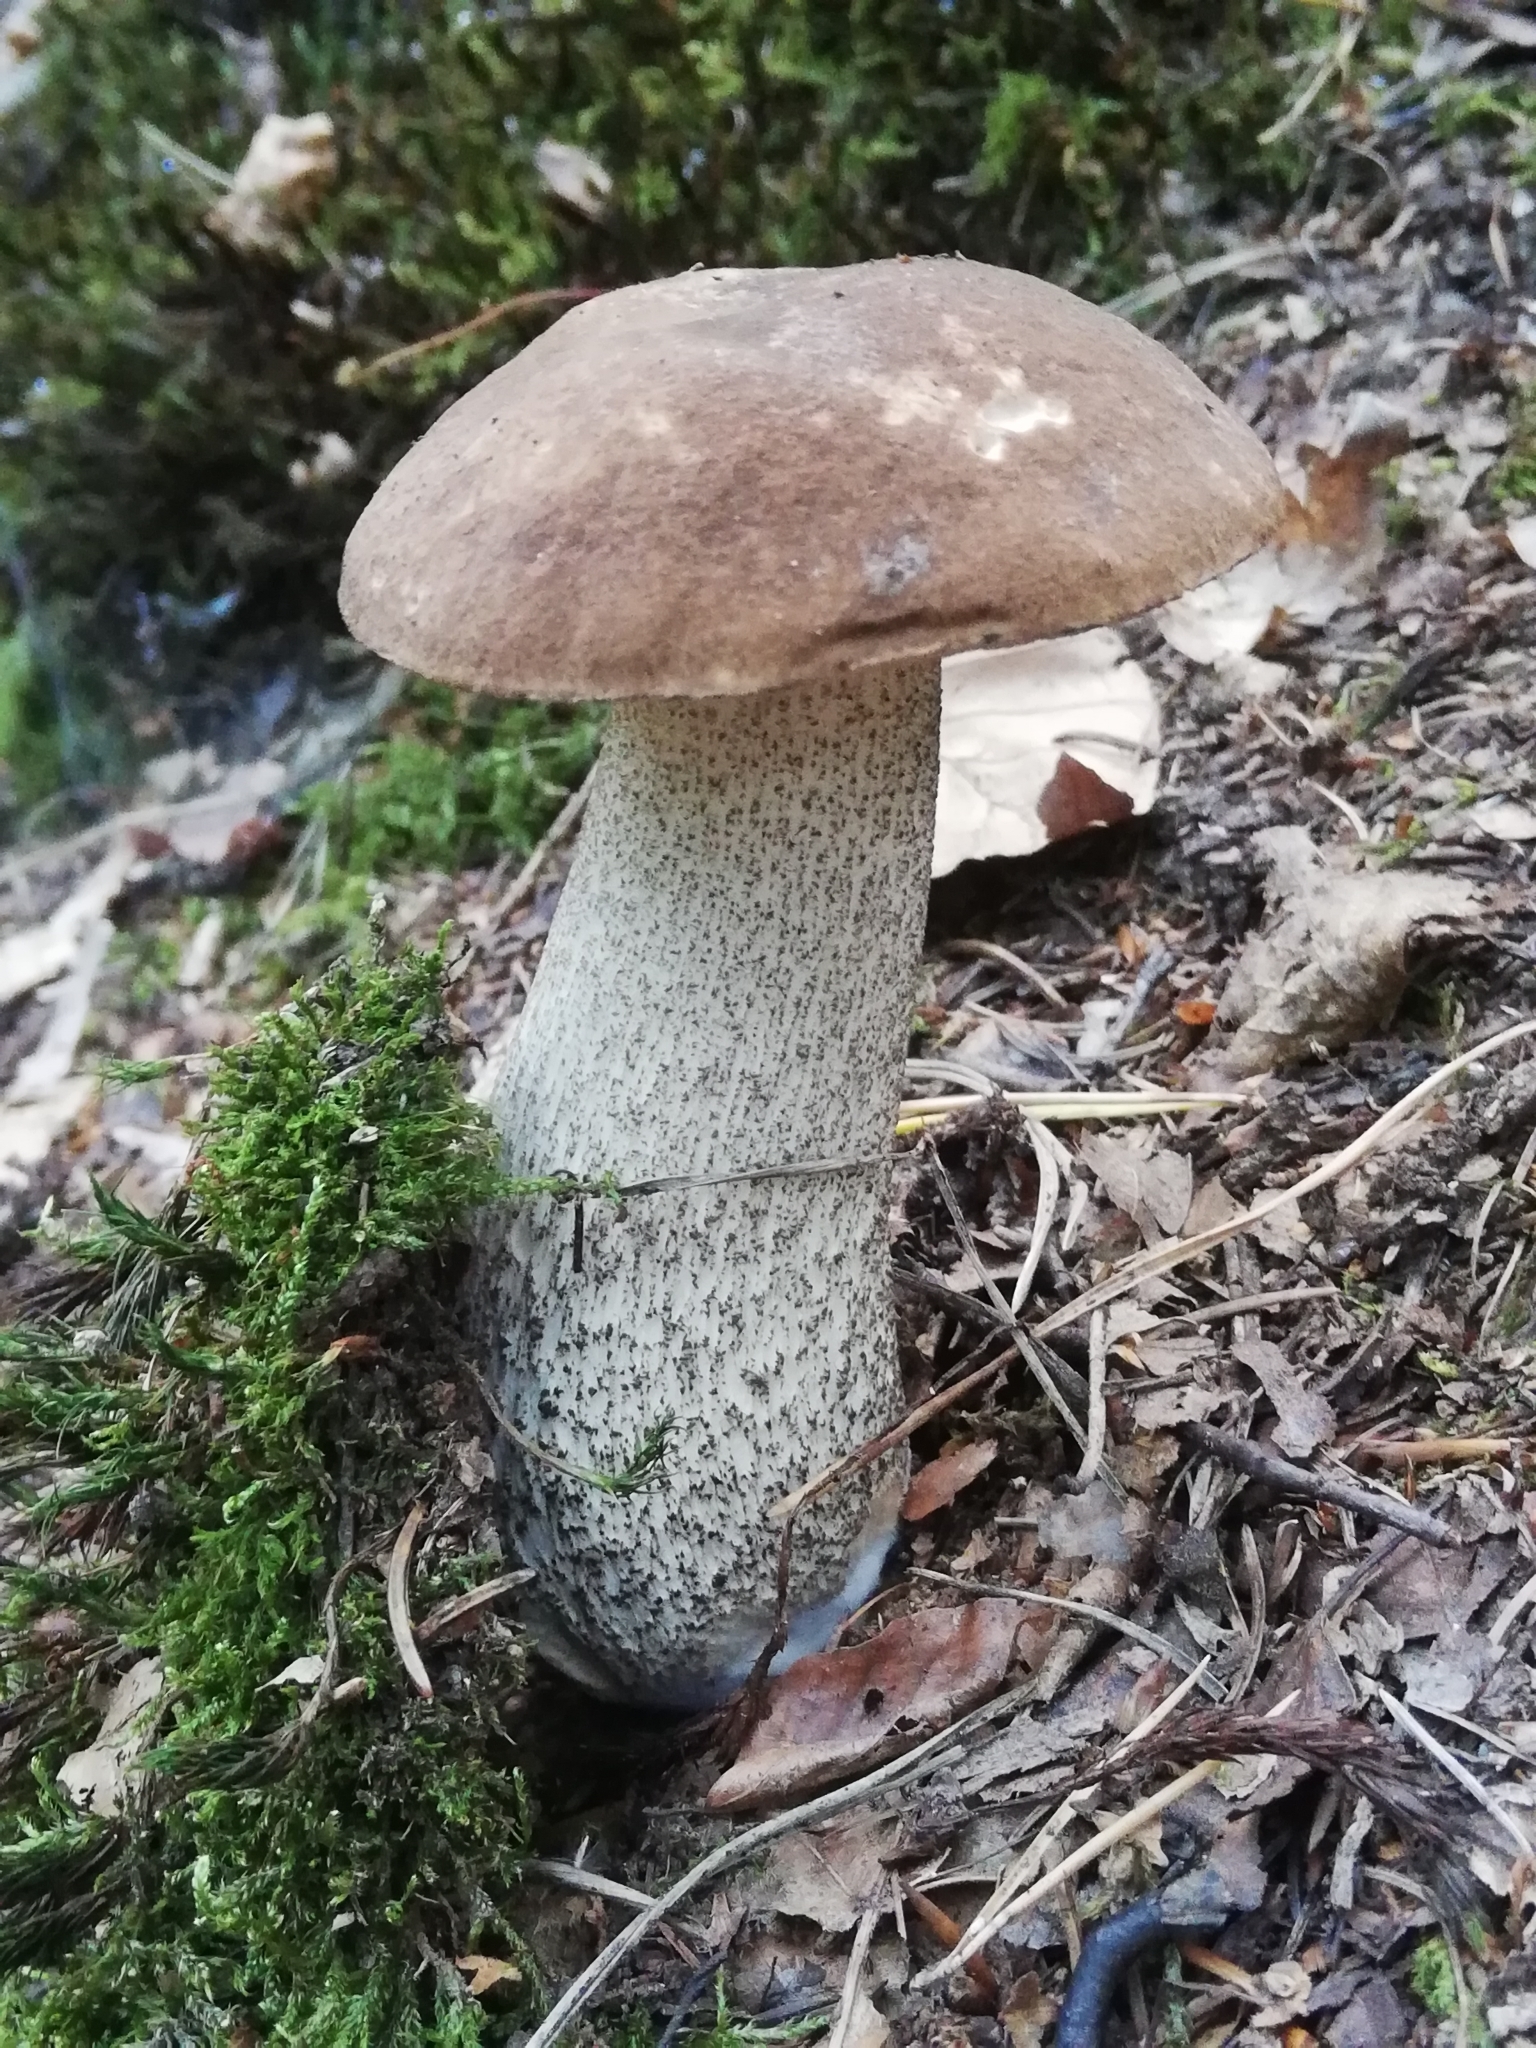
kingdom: Fungi
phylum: Basidiomycota
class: Agaricomycetes
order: Boletales
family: Boletaceae
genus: Leccinum
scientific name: Leccinum scabrum
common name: Blushing bolete
